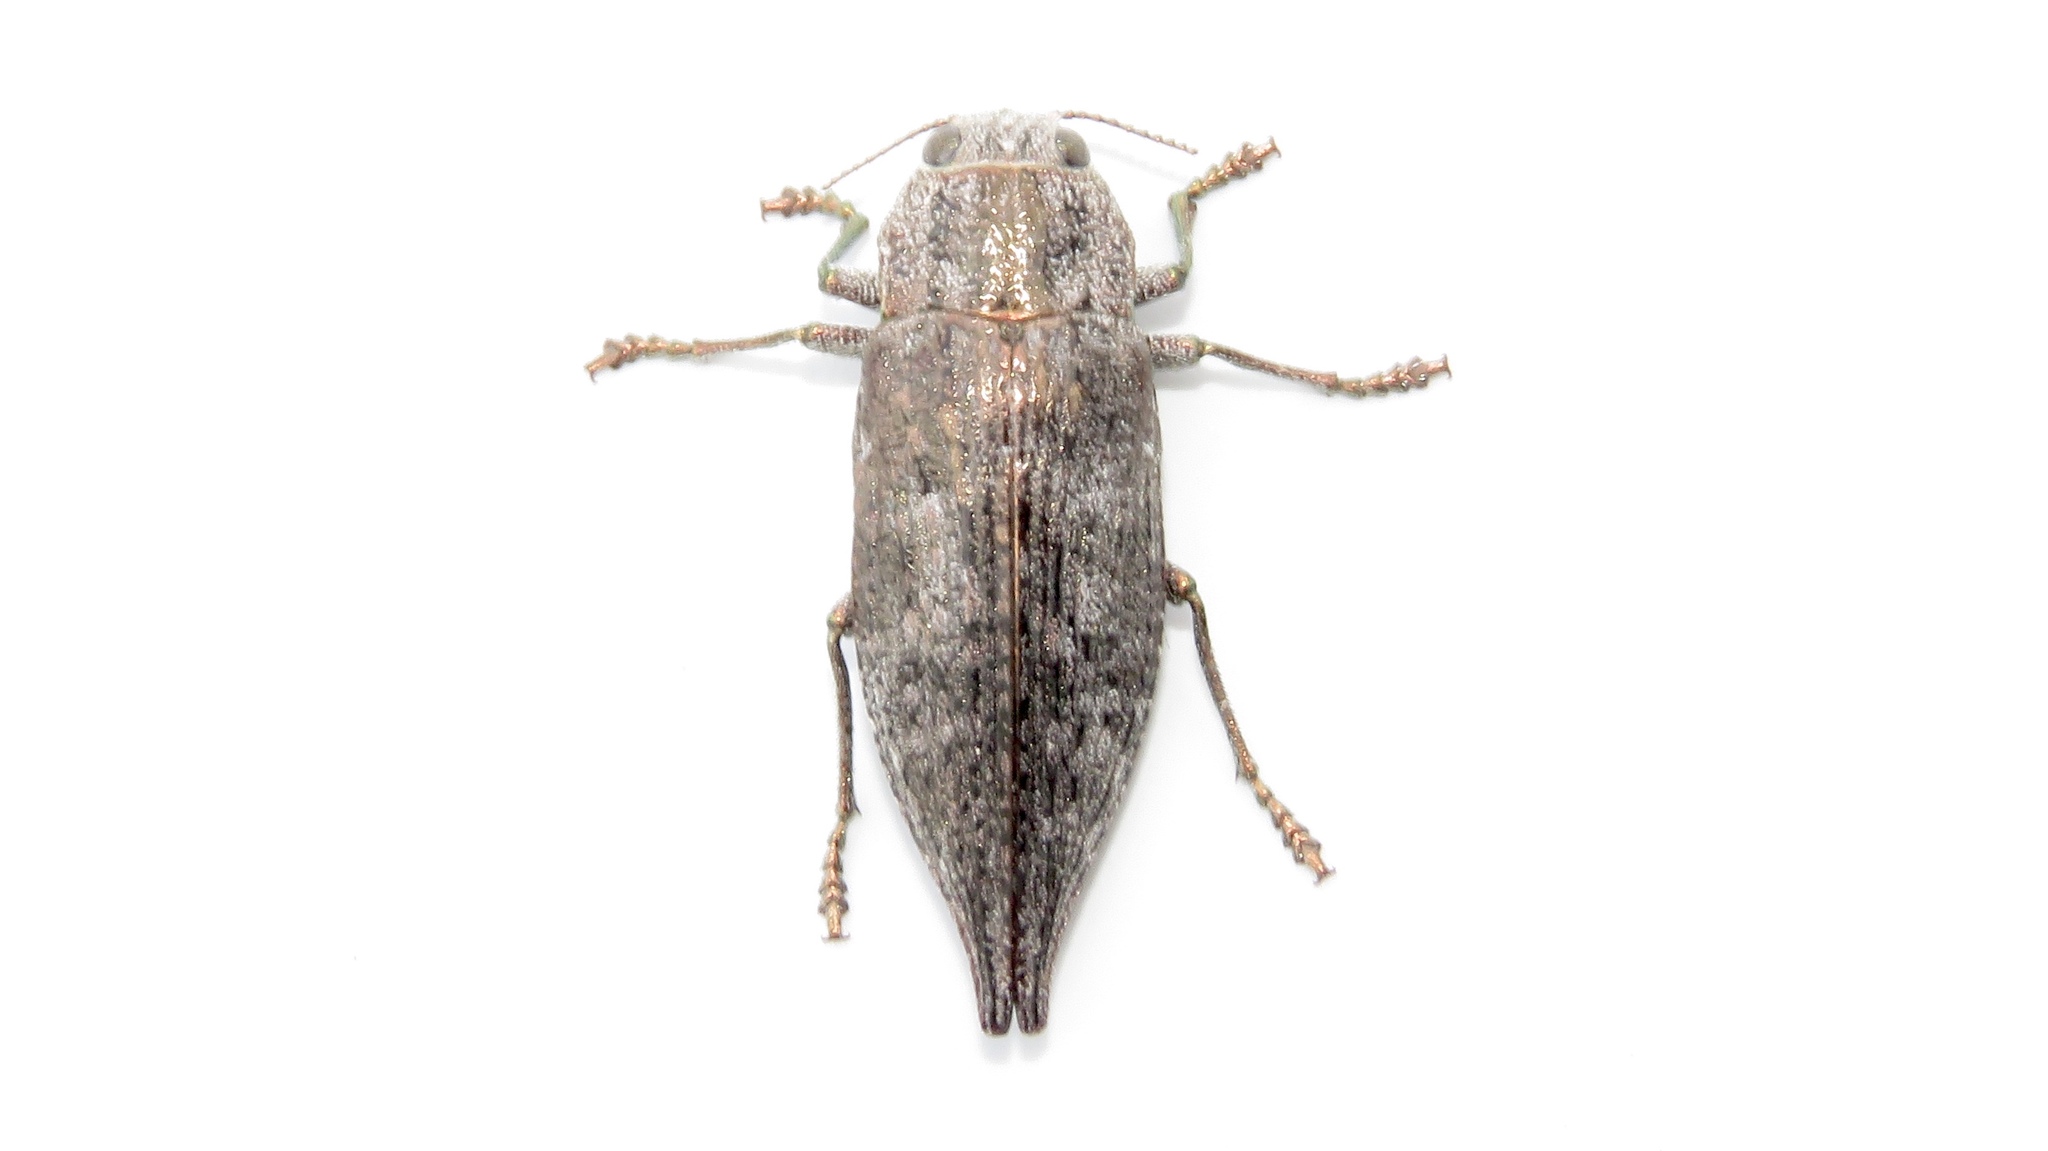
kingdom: Animalia
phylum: Arthropoda
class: Insecta
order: Coleoptera
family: Buprestidae
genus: Dicerca
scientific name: Dicerca divaricata
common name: Flat-headed hardwood borer
